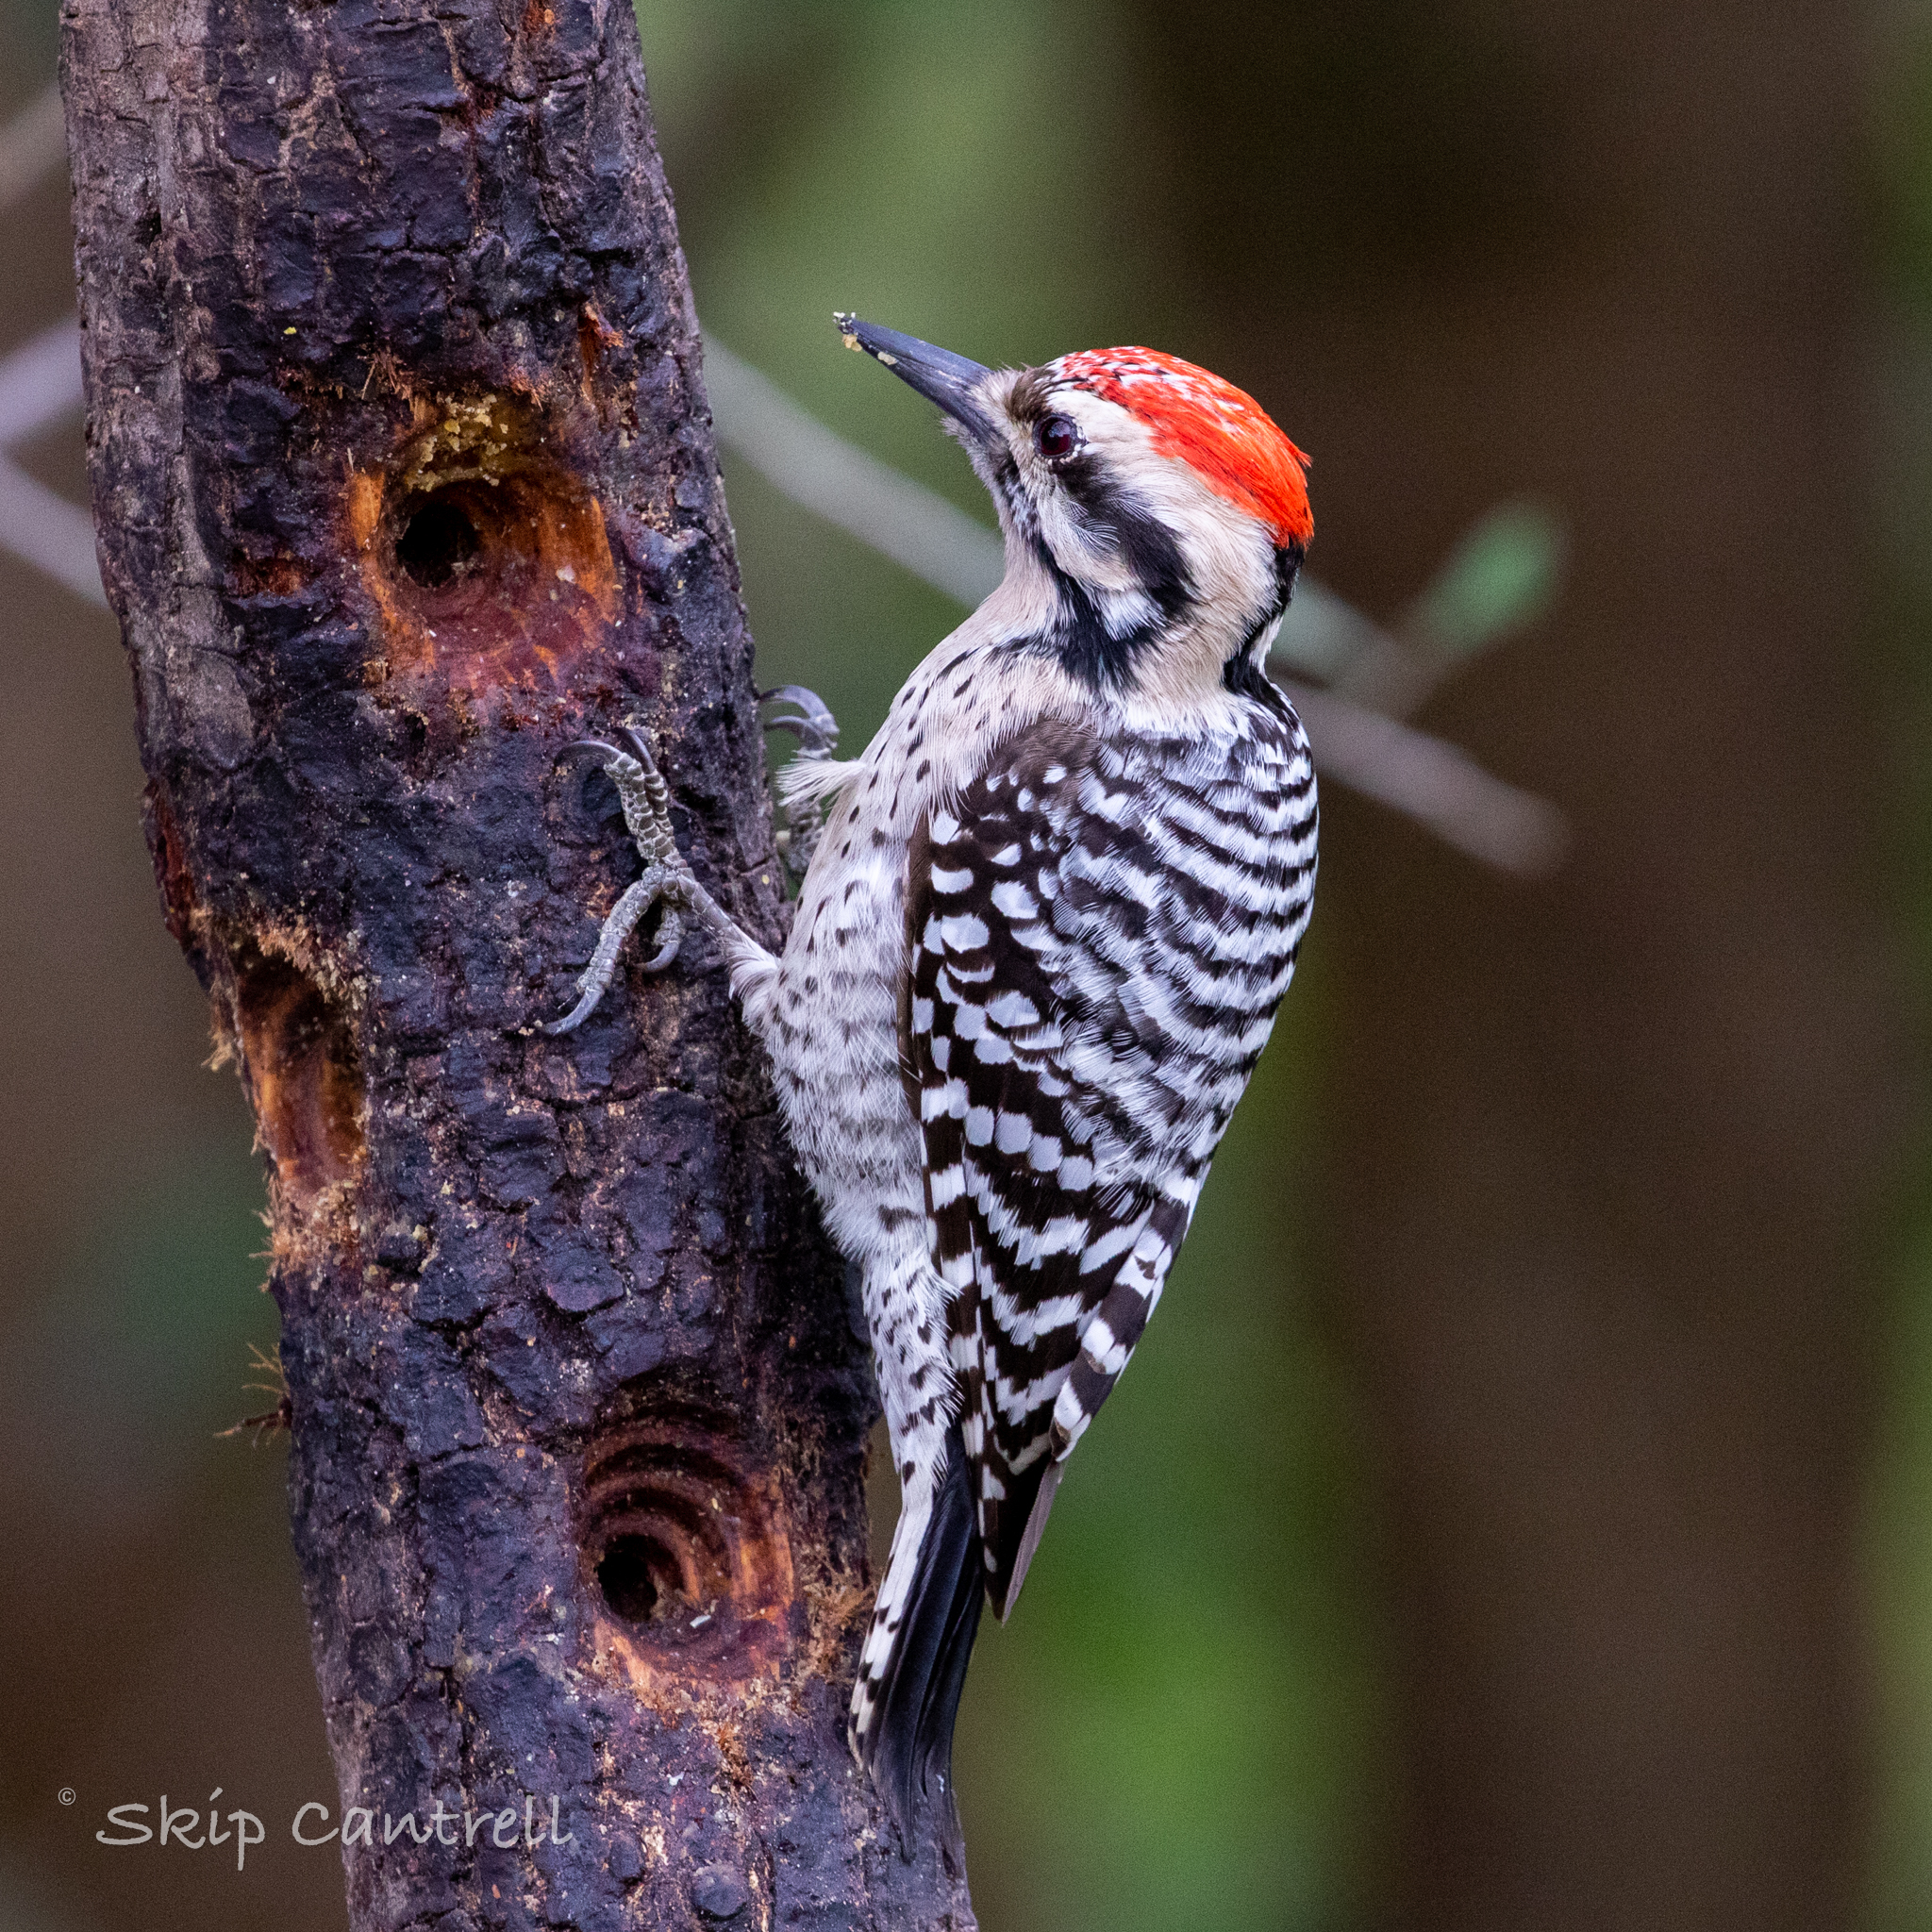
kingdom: Animalia
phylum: Chordata
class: Aves
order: Piciformes
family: Picidae
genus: Dryobates
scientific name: Dryobates scalaris
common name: Ladder-backed woodpecker
